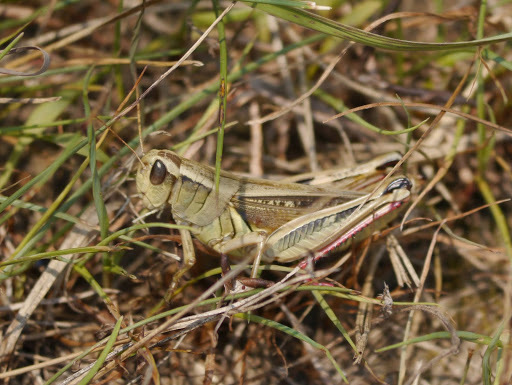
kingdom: Animalia
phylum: Arthropoda
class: Insecta
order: Orthoptera
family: Acrididae
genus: Melanoplus
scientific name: Melanoplus bivittatus
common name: Two-striped grasshopper
